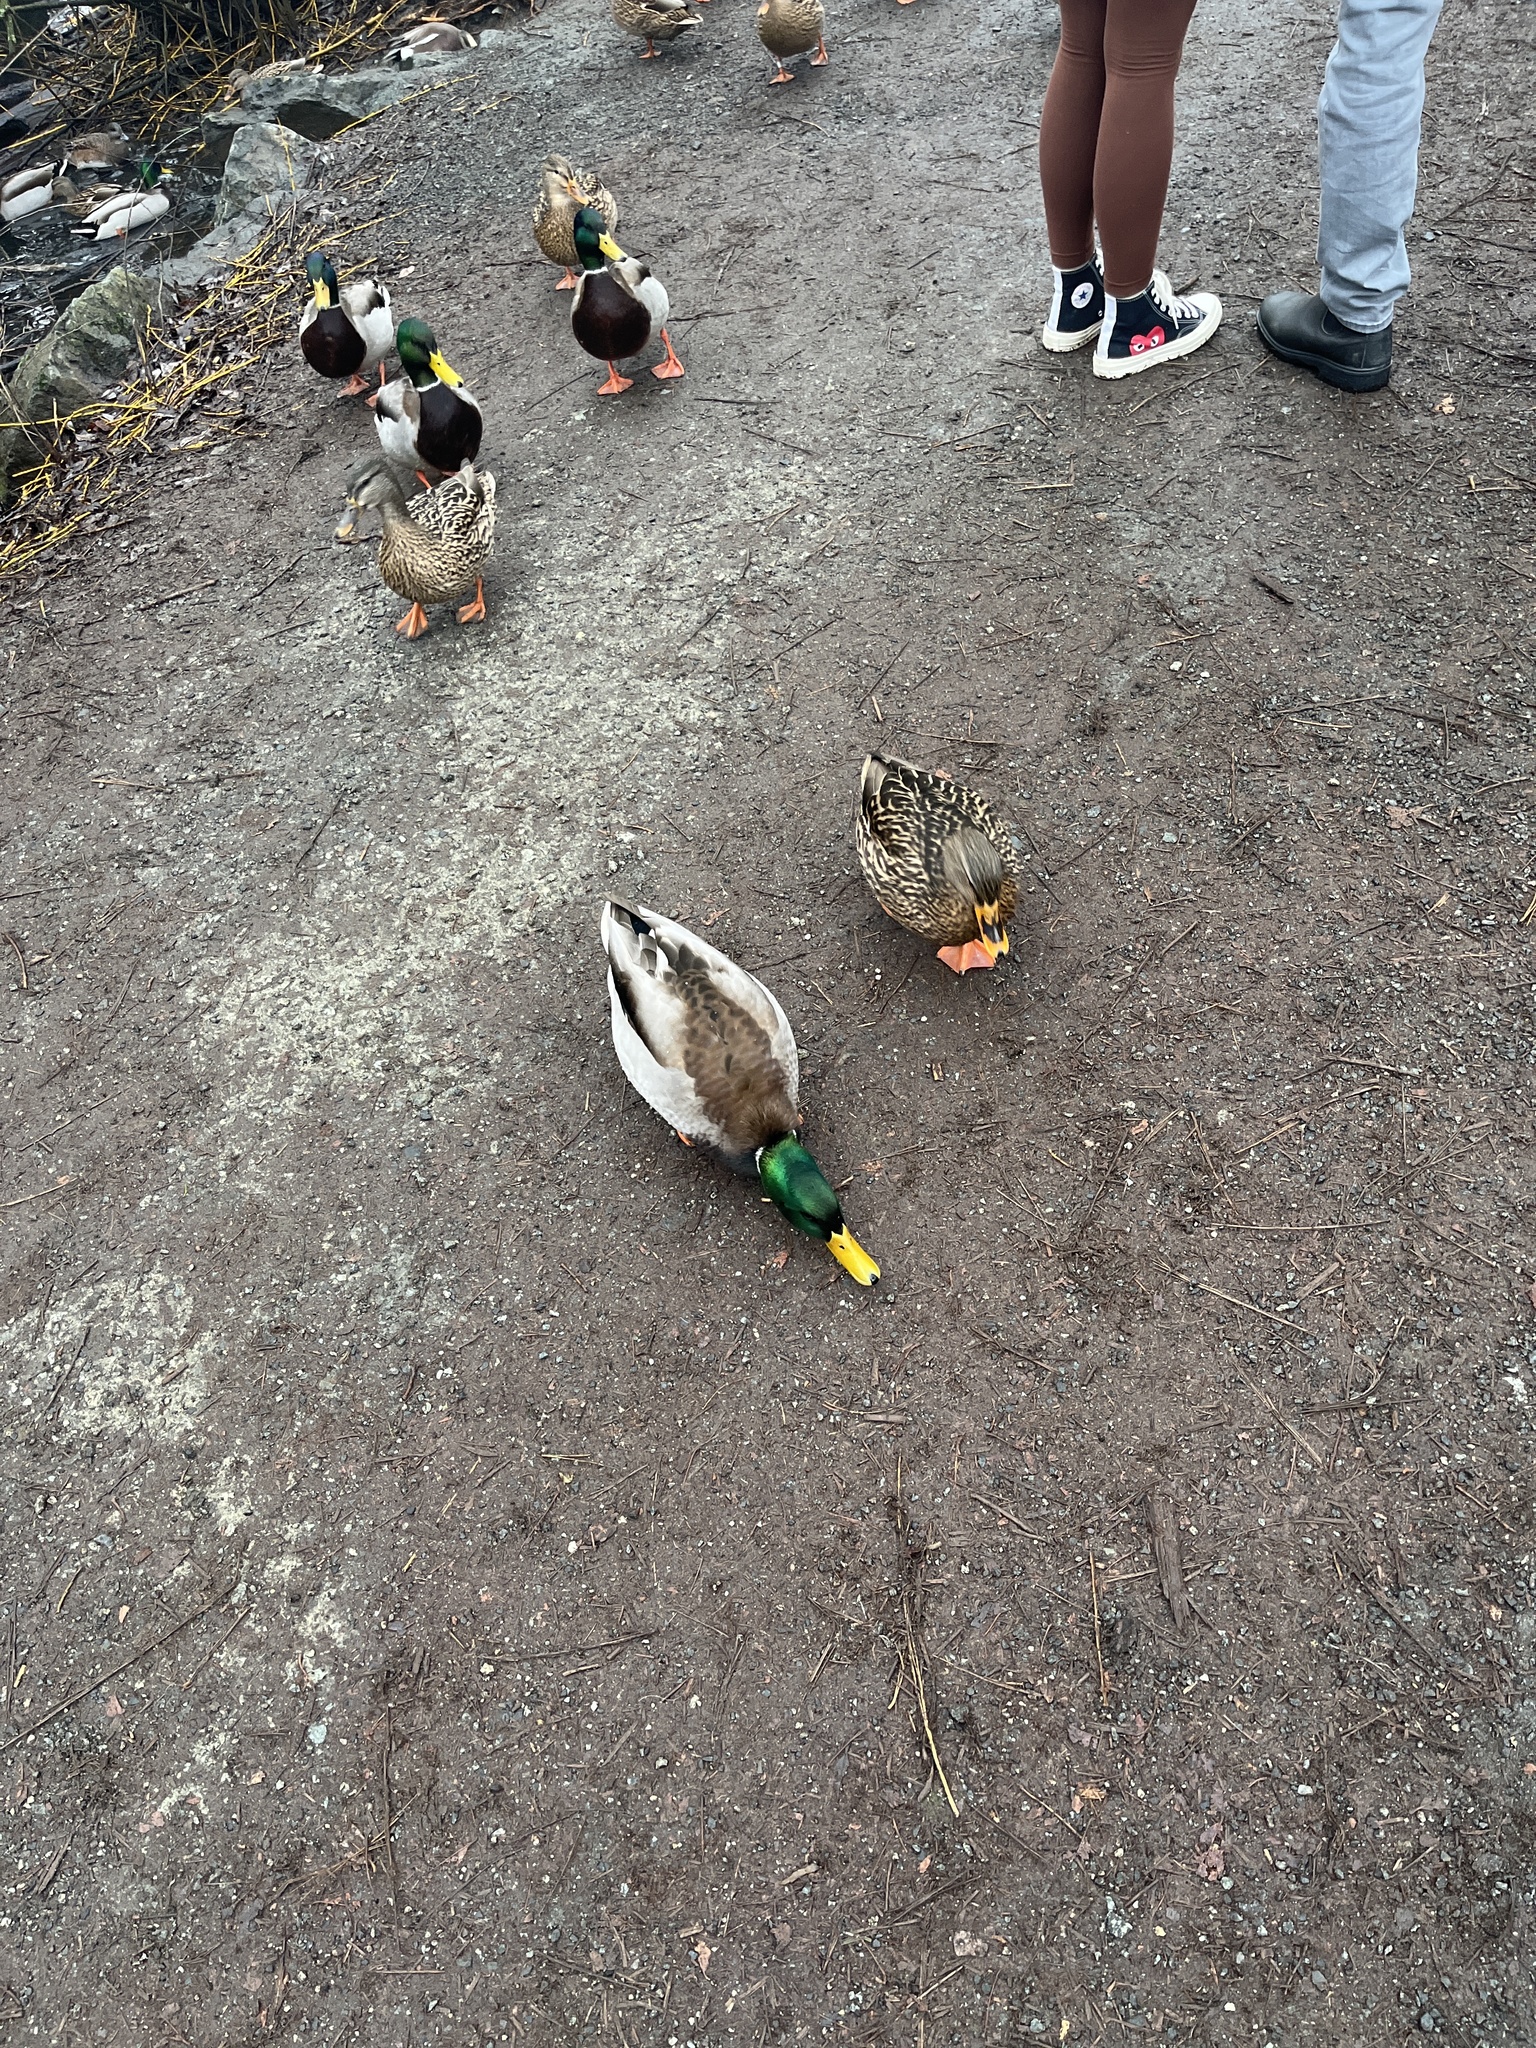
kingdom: Animalia
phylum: Chordata
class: Aves
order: Anseriformes
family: Anatidae
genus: Anas
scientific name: Anas platyrhynchos
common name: Mallard
